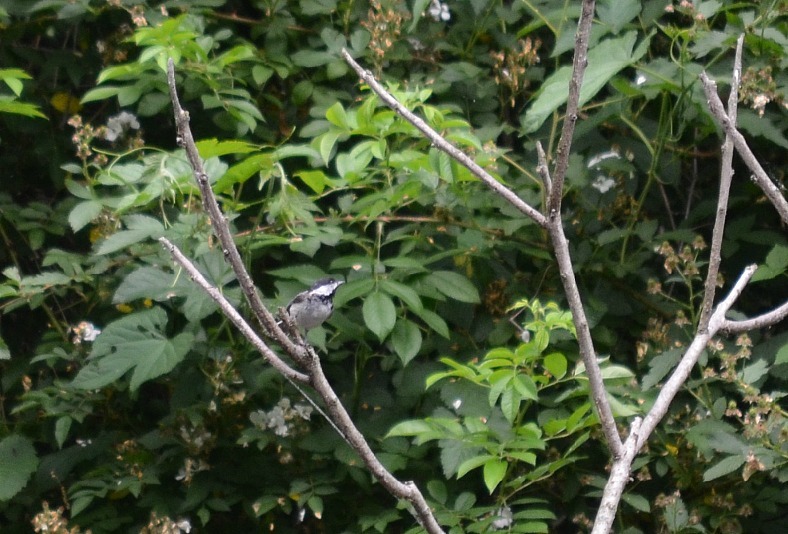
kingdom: Animalia
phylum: Chordata
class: Aves
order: Passeriformes
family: Paridae
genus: Poecile
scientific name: Poecile atricapillus
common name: Black-capped chickadee
